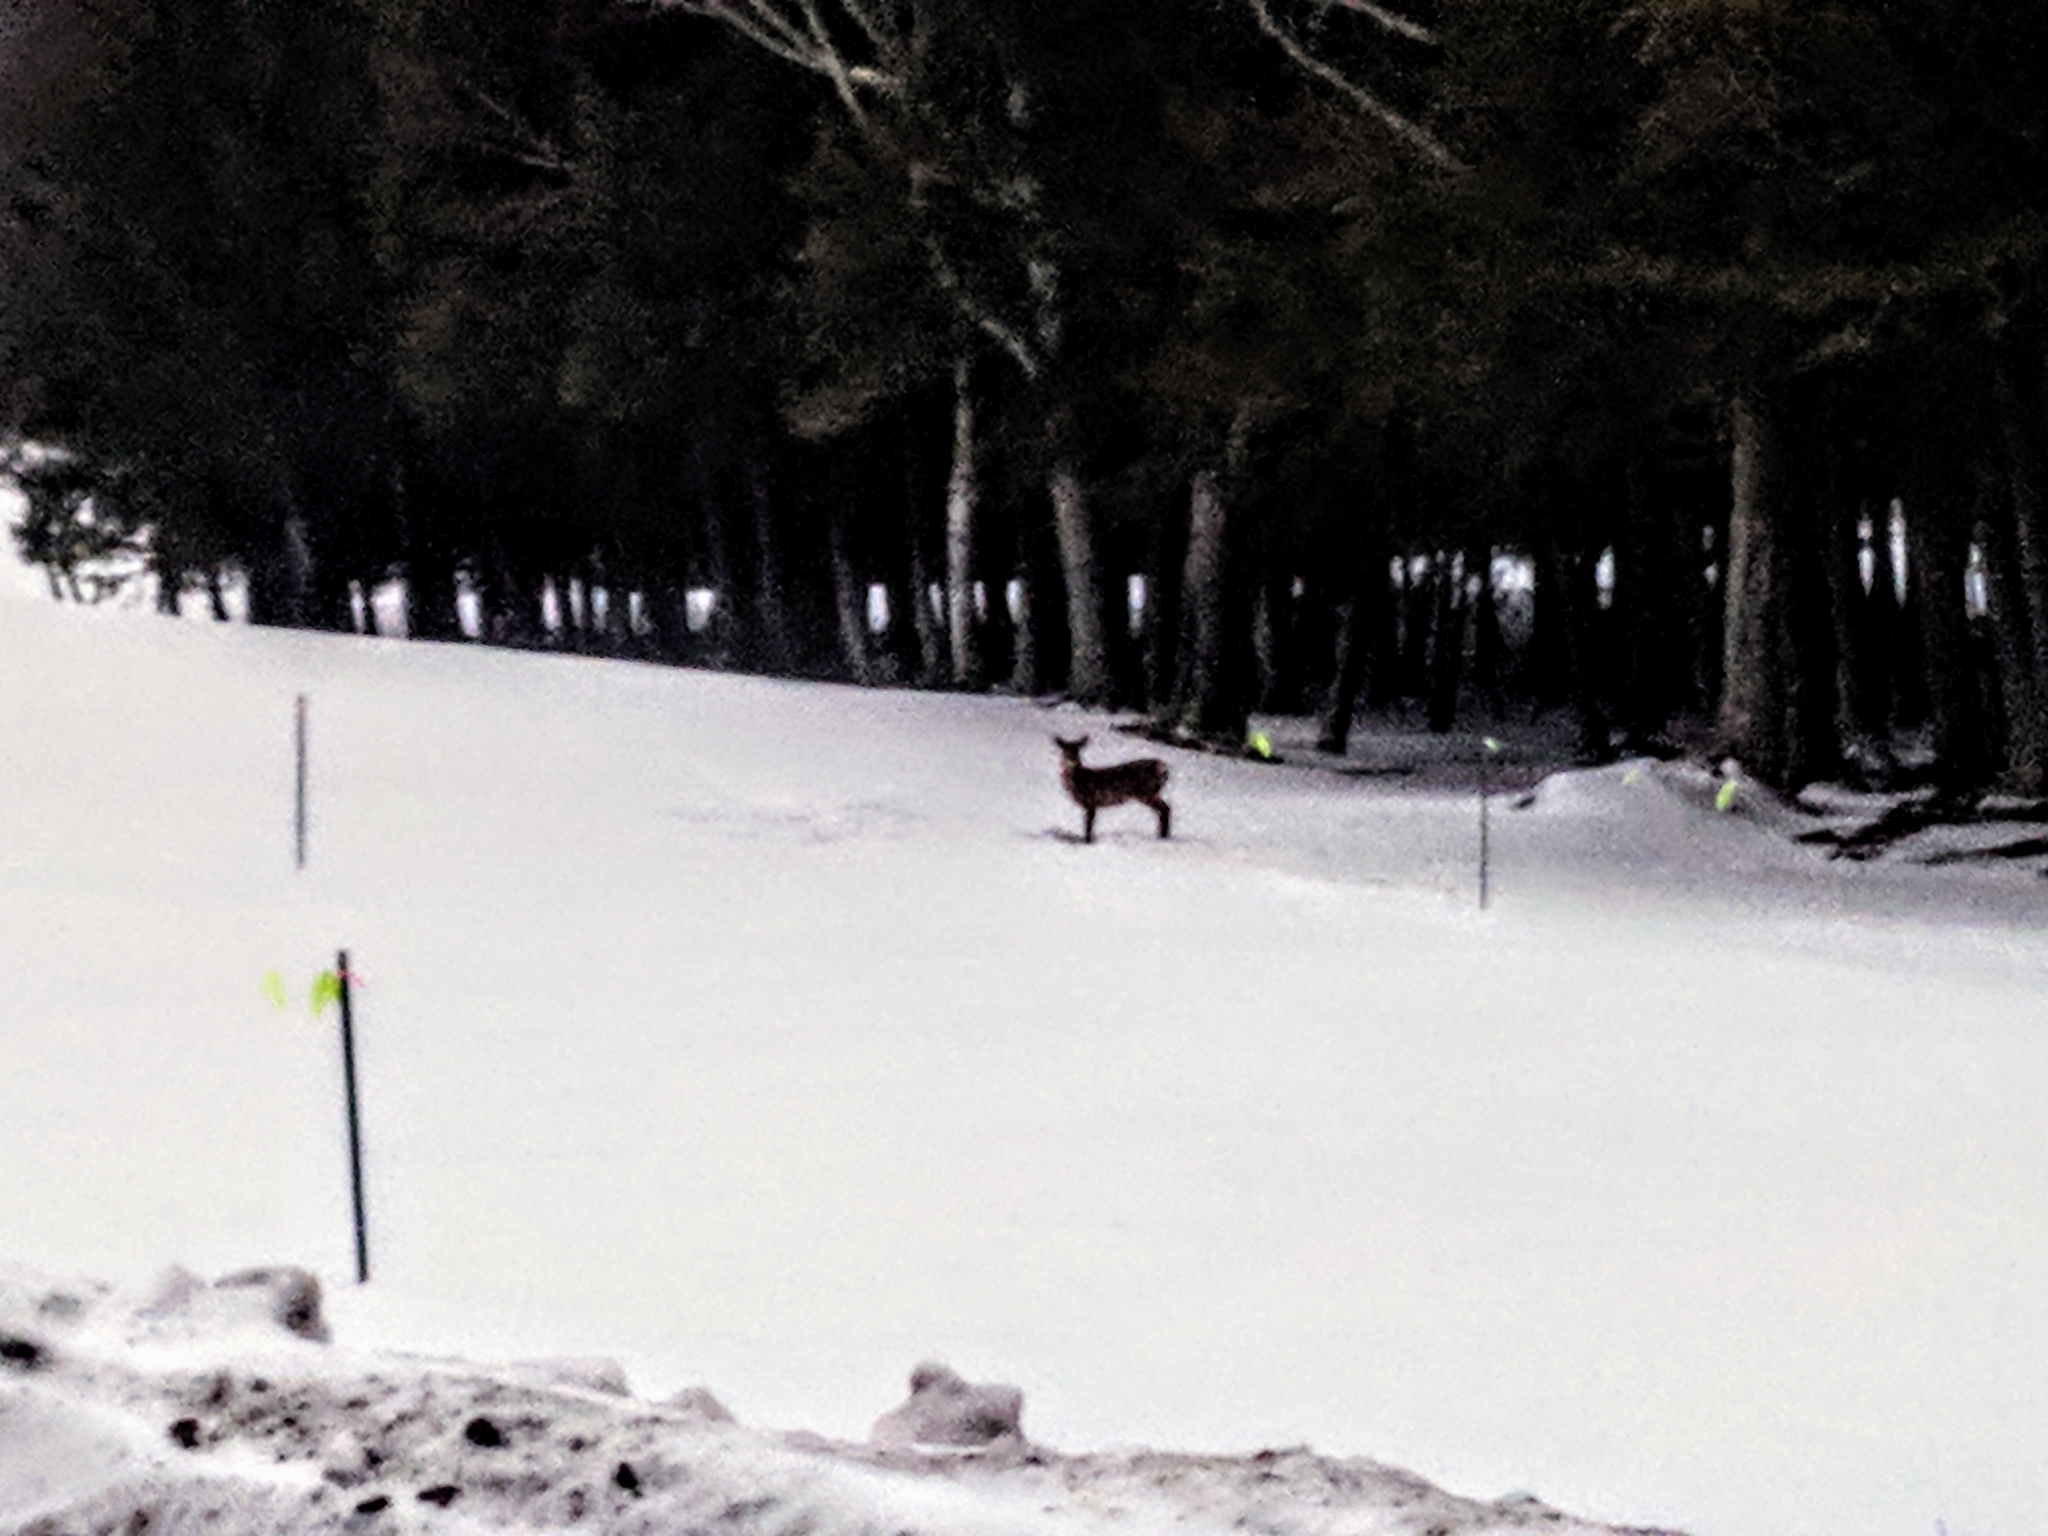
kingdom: Animalia
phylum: Chordata
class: Mammalia
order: Artiodactyla
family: Cervidae
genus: Odocoileus
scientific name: Odocoileus virginianus
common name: White-tailed deer
